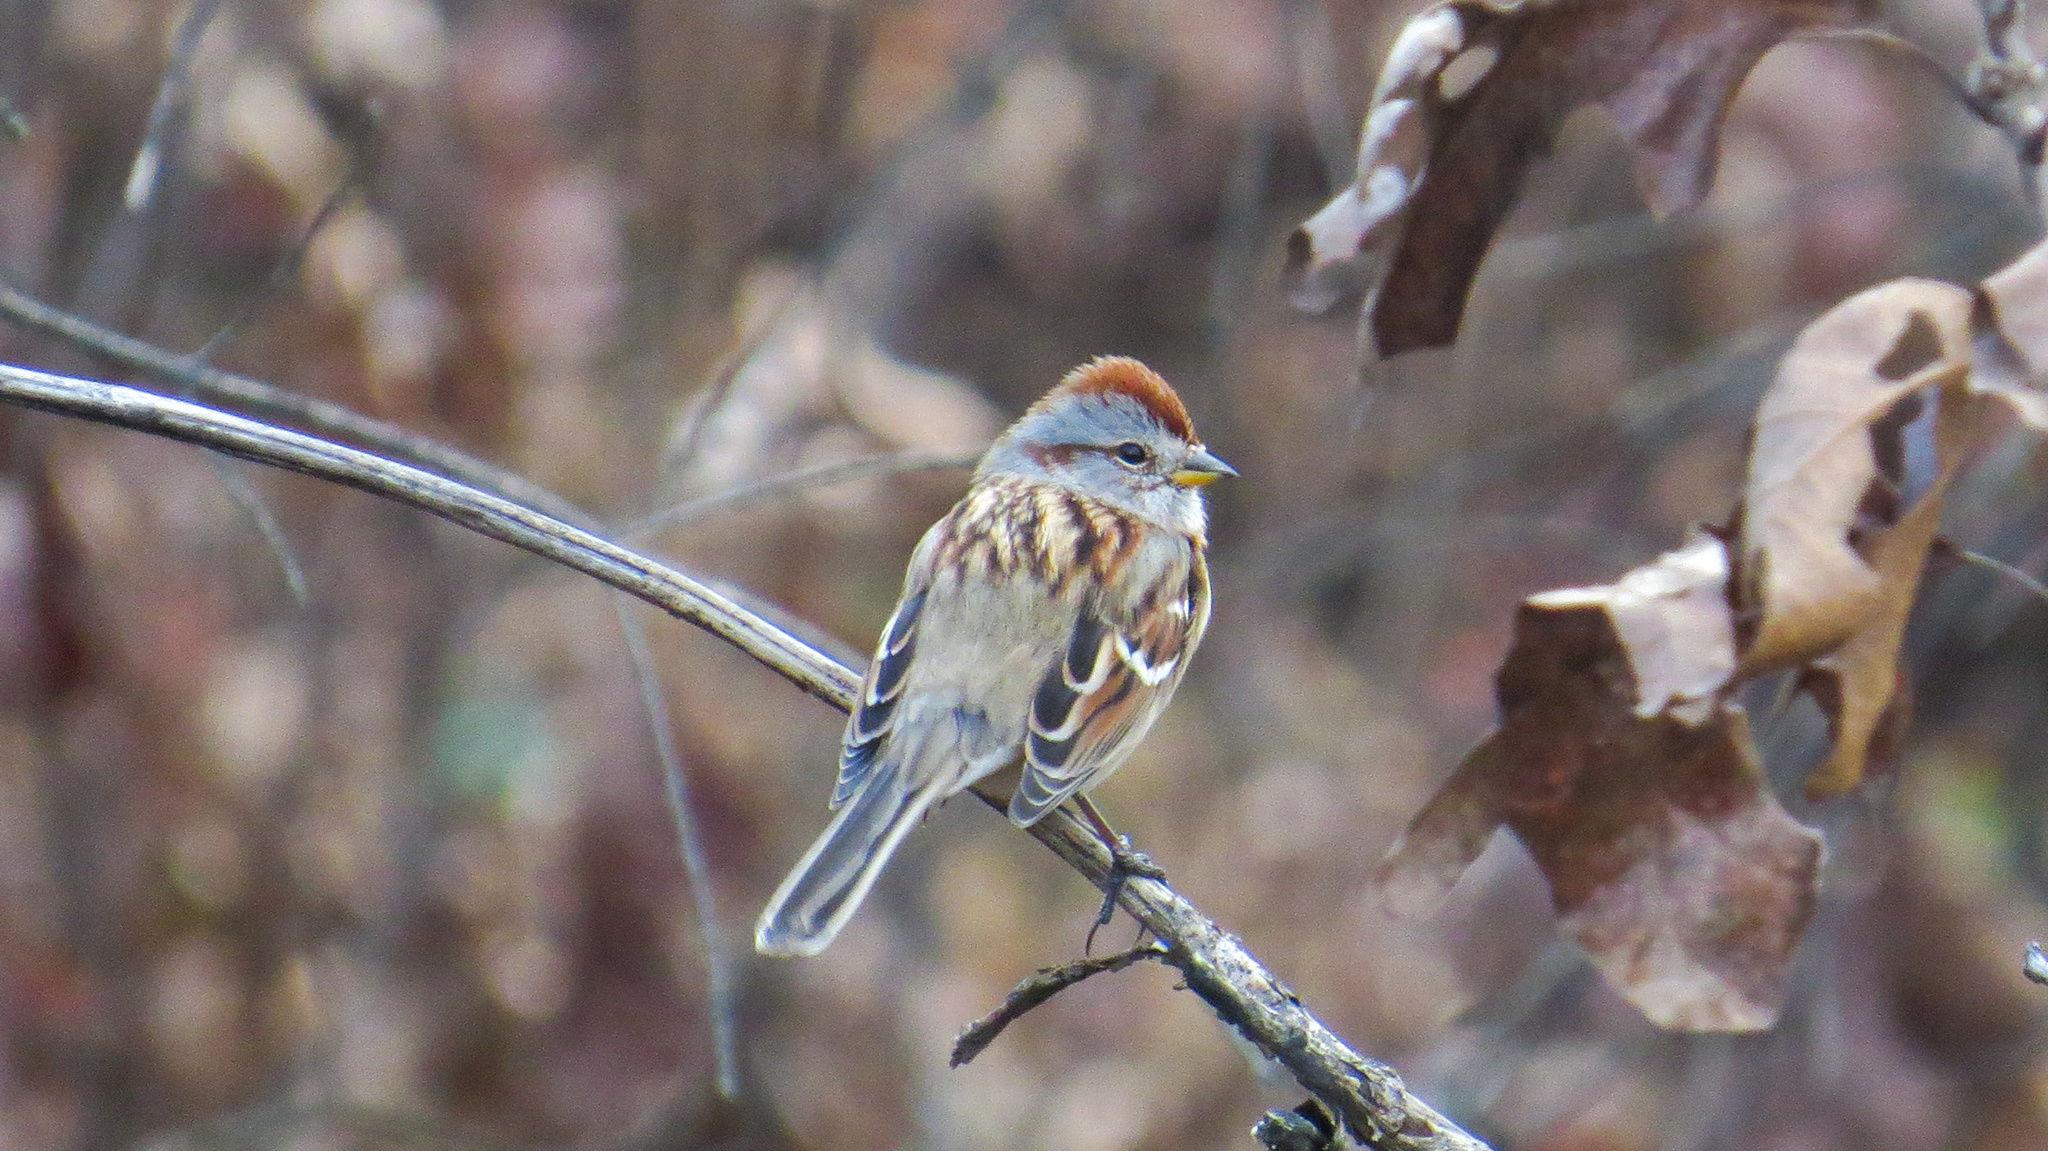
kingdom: Animalia
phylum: Chordata
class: Aves
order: Passeriformes
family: Passerellidae
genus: Spizelloides
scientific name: Spizelloides arborea
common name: American tree sparrow
